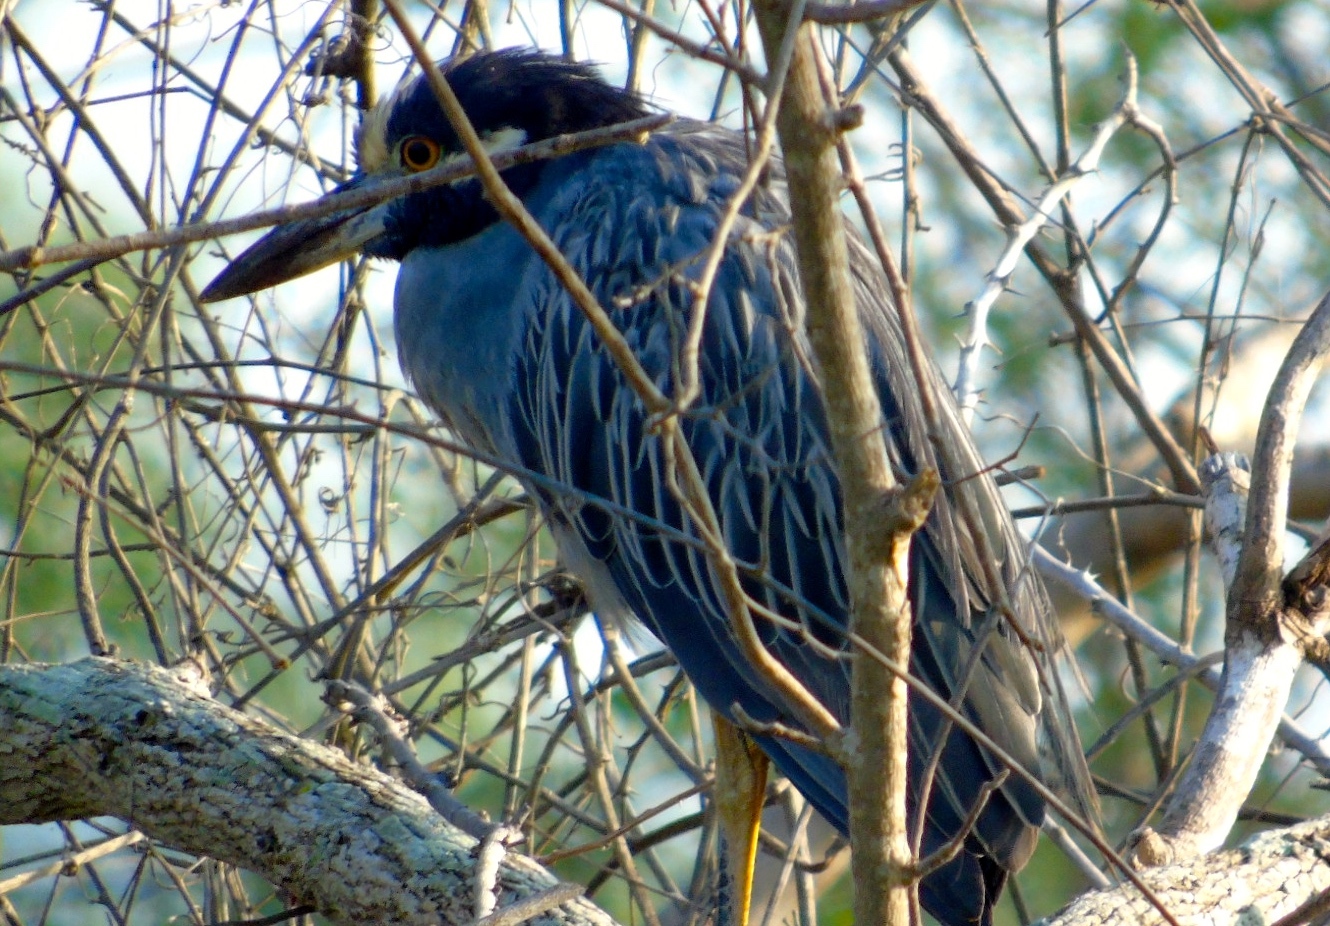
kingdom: Animalia
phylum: Chordata
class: Aves
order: Pelecaniformes
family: Ardeidae
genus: Nyctanassa
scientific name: Nyctanassa violacea
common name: Yellow-crowned night heron
